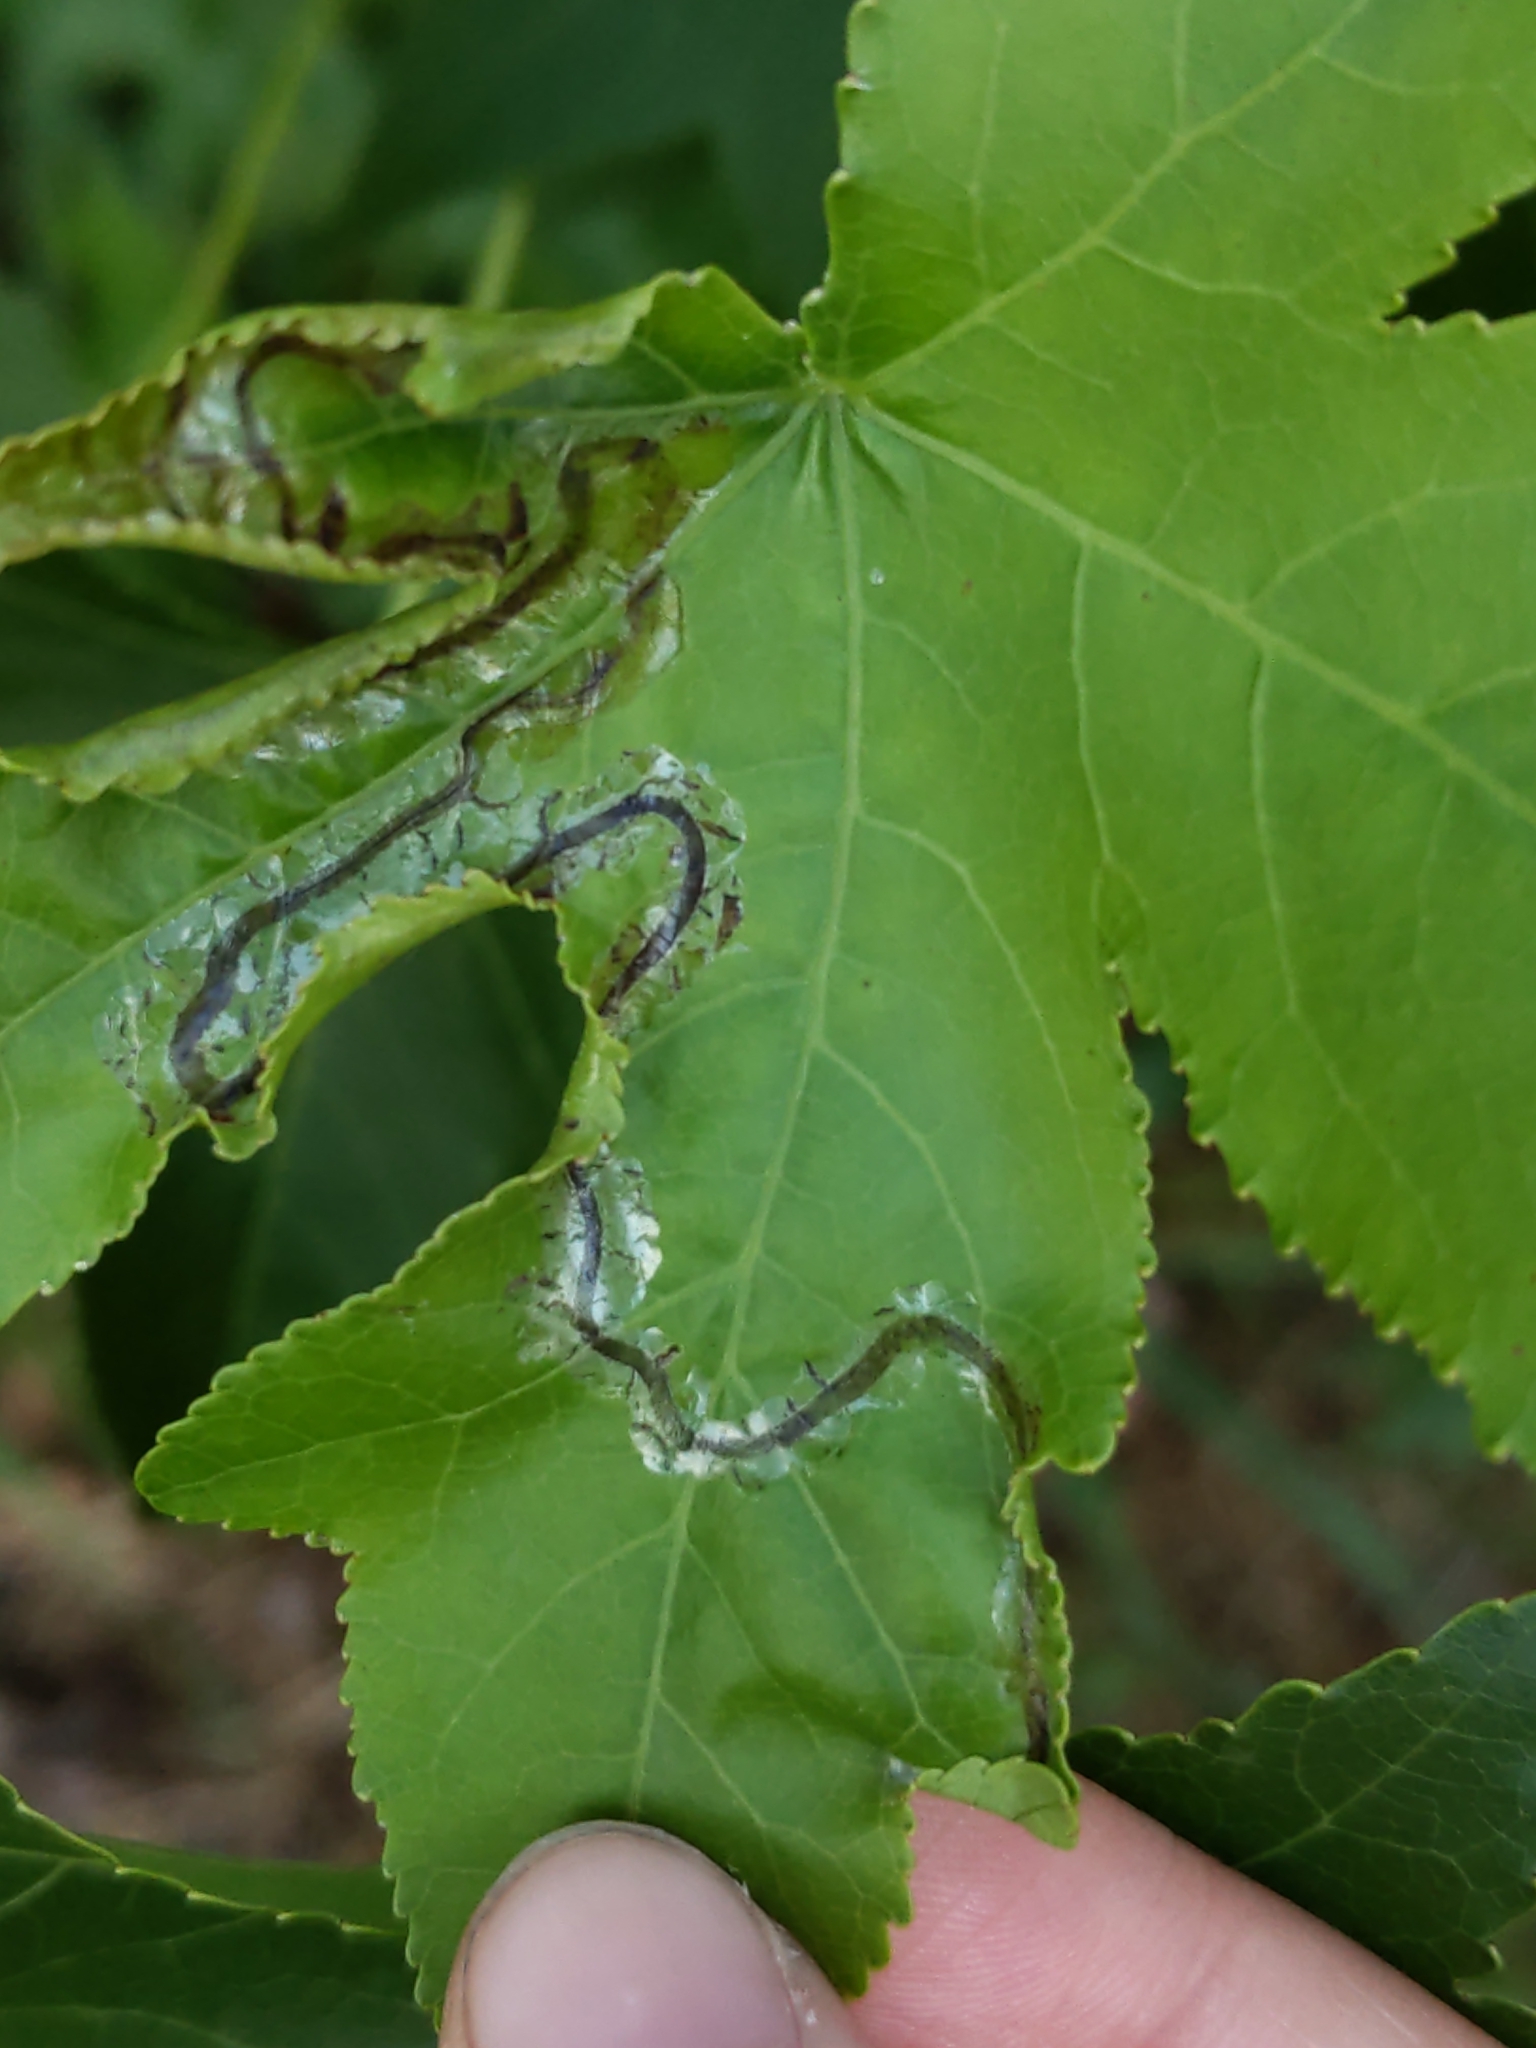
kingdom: Animalia
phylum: Arthropoda
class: Insecta
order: Lepidoptera
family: Gracillariidae
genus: Phyllocnistis
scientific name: Phyllocnistis liquidambarisella
